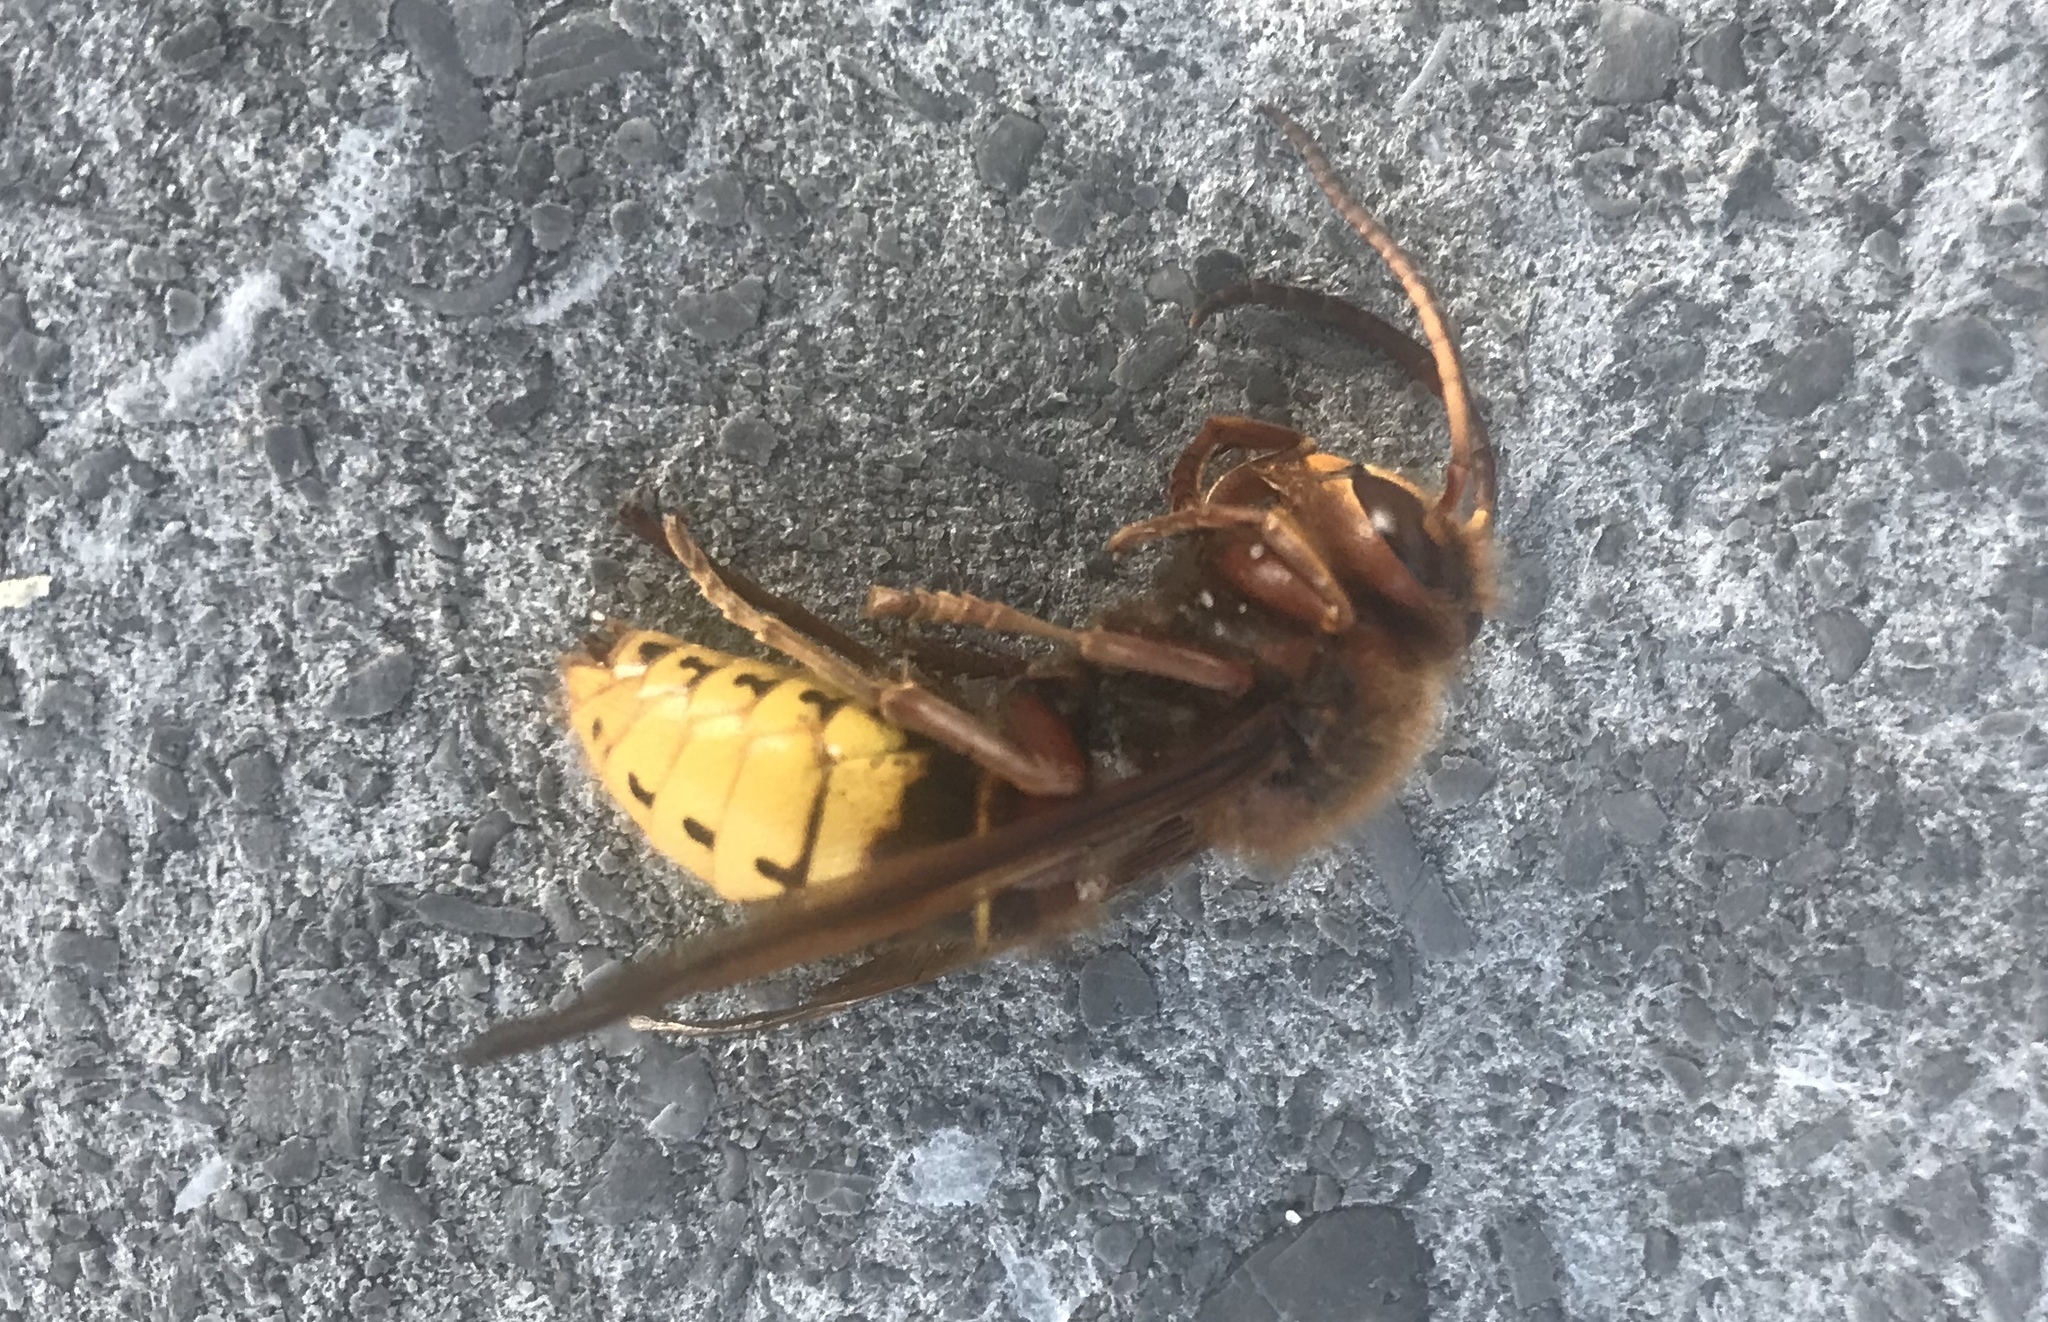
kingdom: Animalia
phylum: Arthropoda
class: Insecta
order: Hymenoptera
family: Vespidae
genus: Vespa
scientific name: Vespa crabro
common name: Hornet
